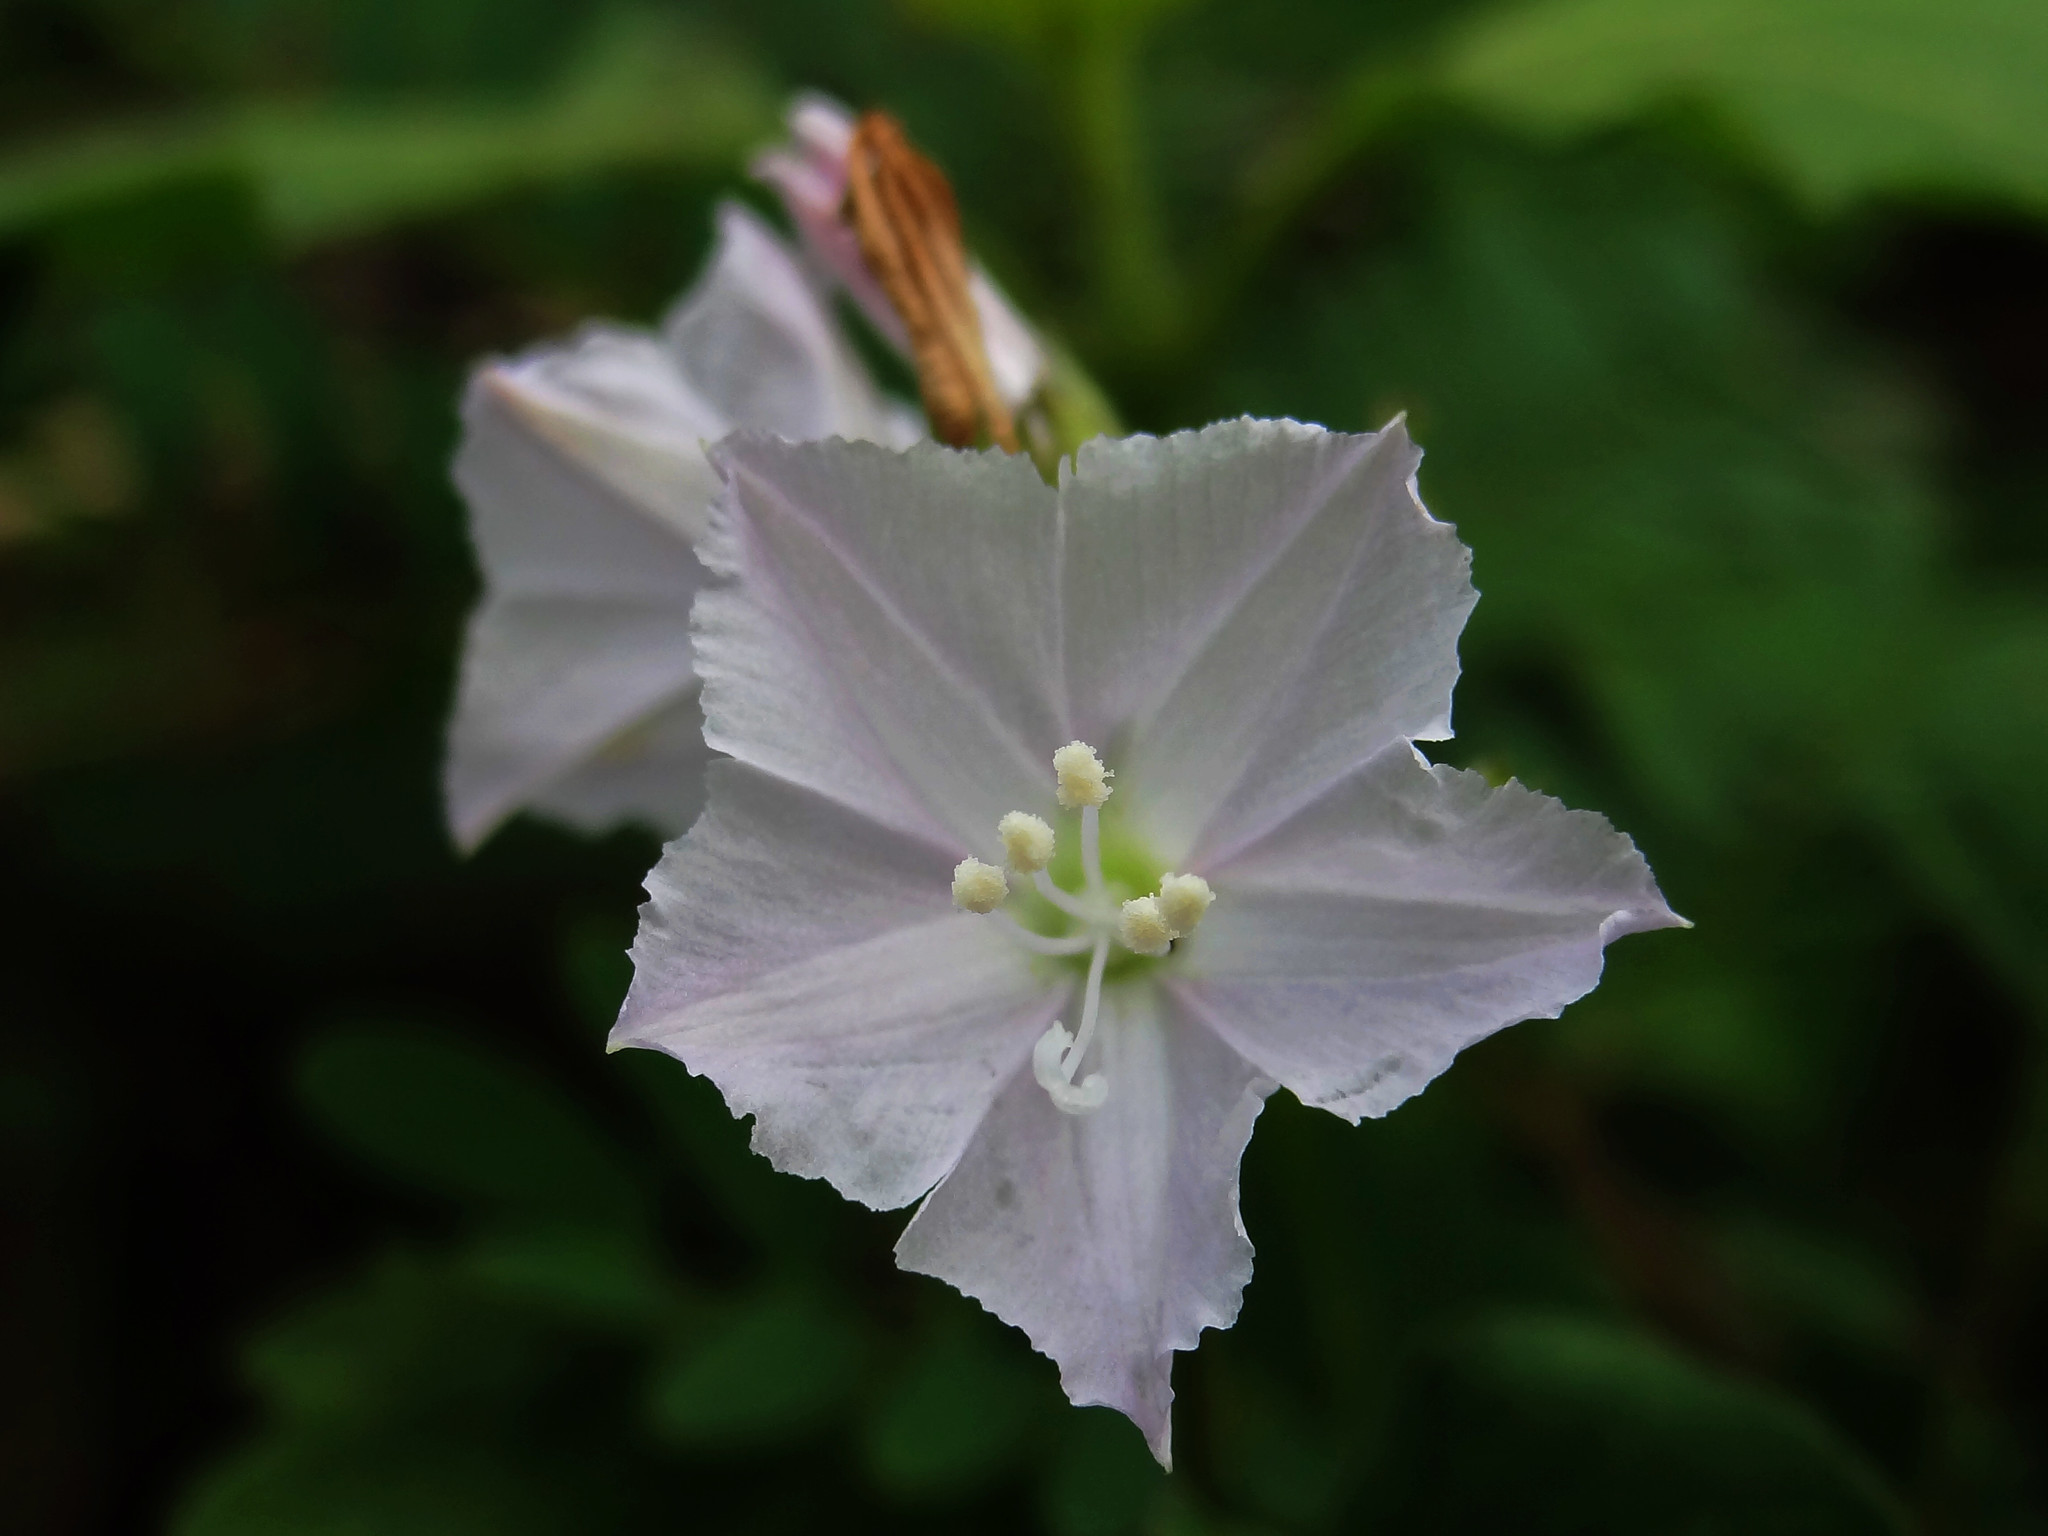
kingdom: Plantae
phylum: Tracheophyta
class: Magnoliopsida
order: Solanales
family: Convolvulaceae
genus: Jacquemontia
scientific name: Jacquemontia paniculata
